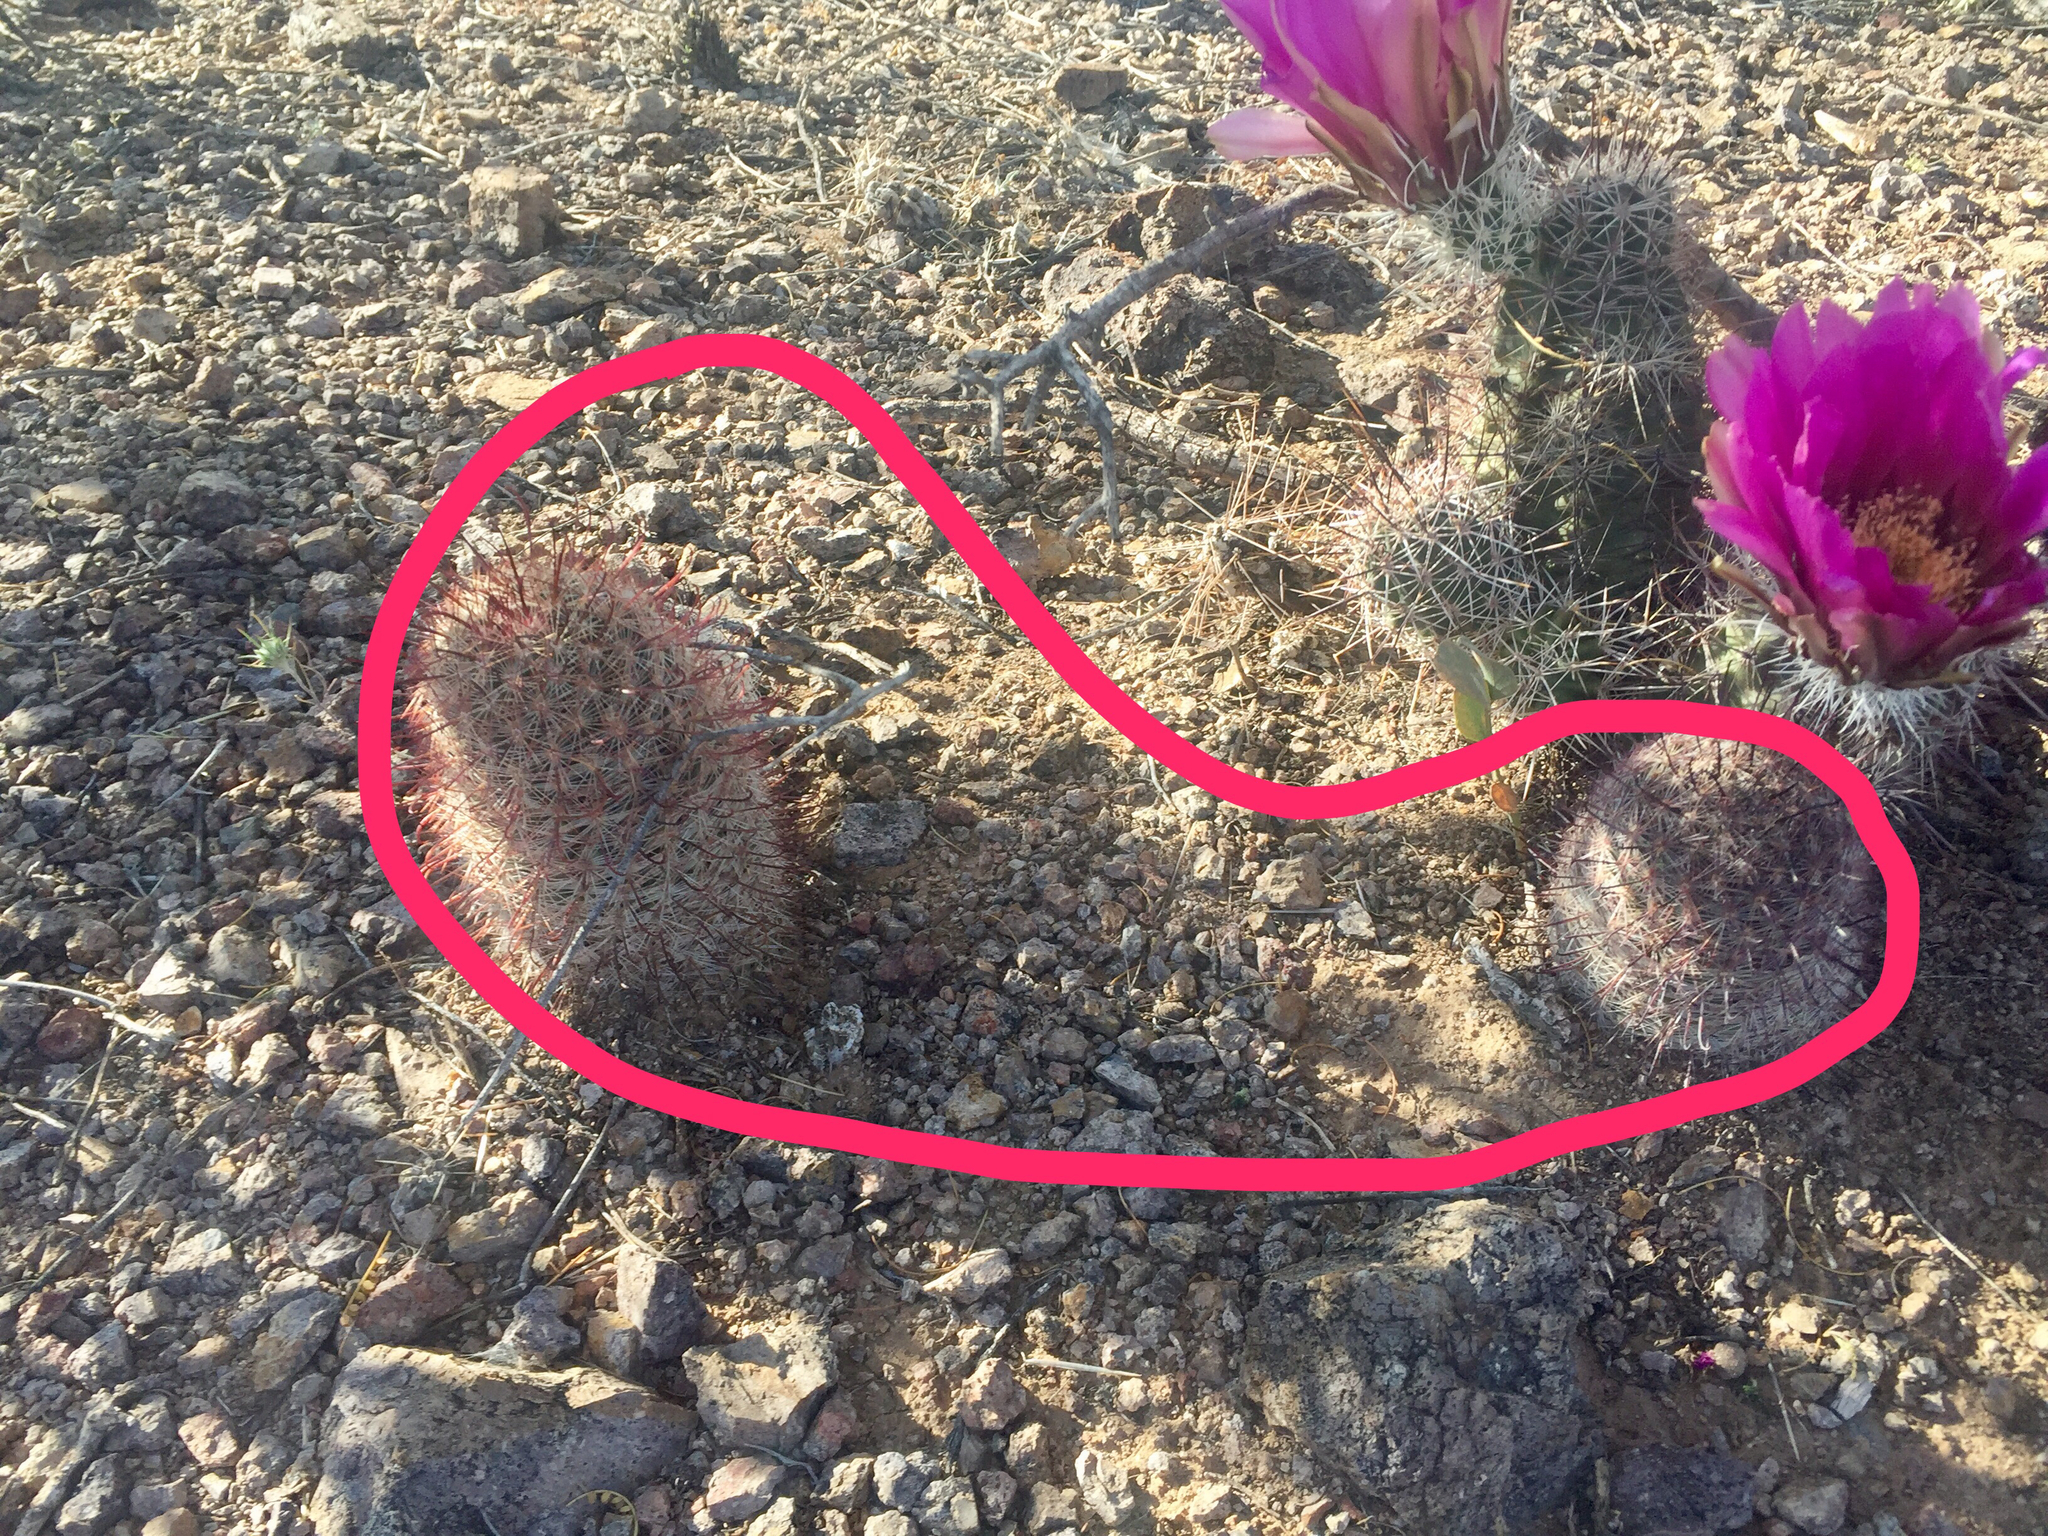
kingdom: Plantae
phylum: Tracheophyta
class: Magnoliopsida
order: Caryophyllales
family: Cactaceae
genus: Cochemiea
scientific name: Cochemiea grahamii
